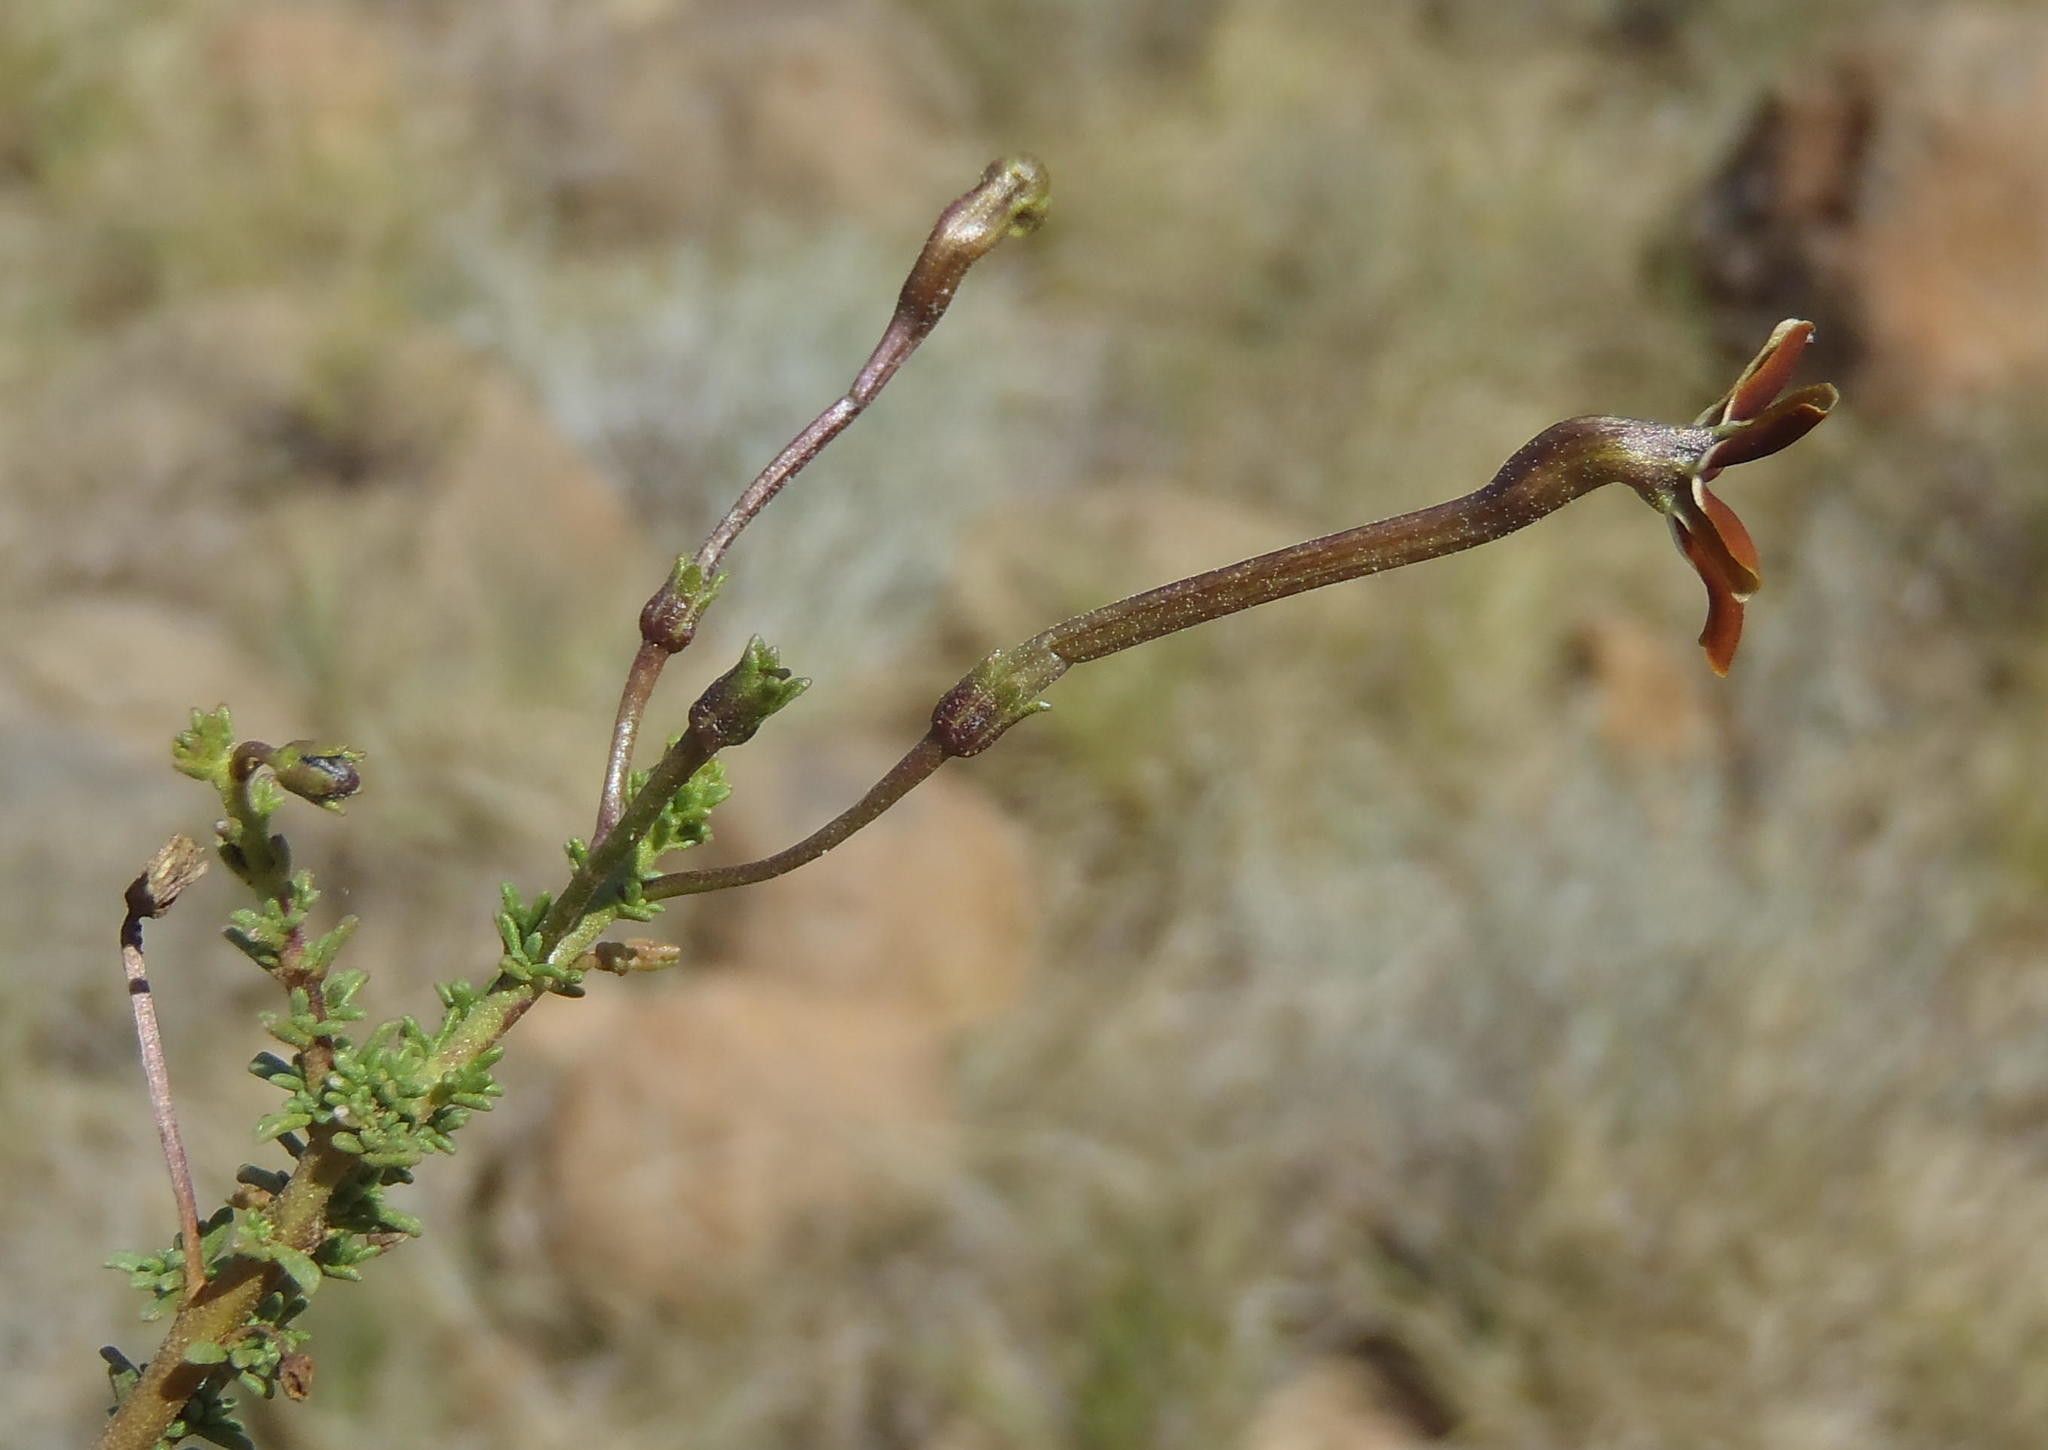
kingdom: Plantae
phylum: Tracheophyta
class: Magnoliopsida
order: Lamiales
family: Scrophulariaceae
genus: Jamesbrittenia
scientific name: Jamesbrittenia atropurpurea
